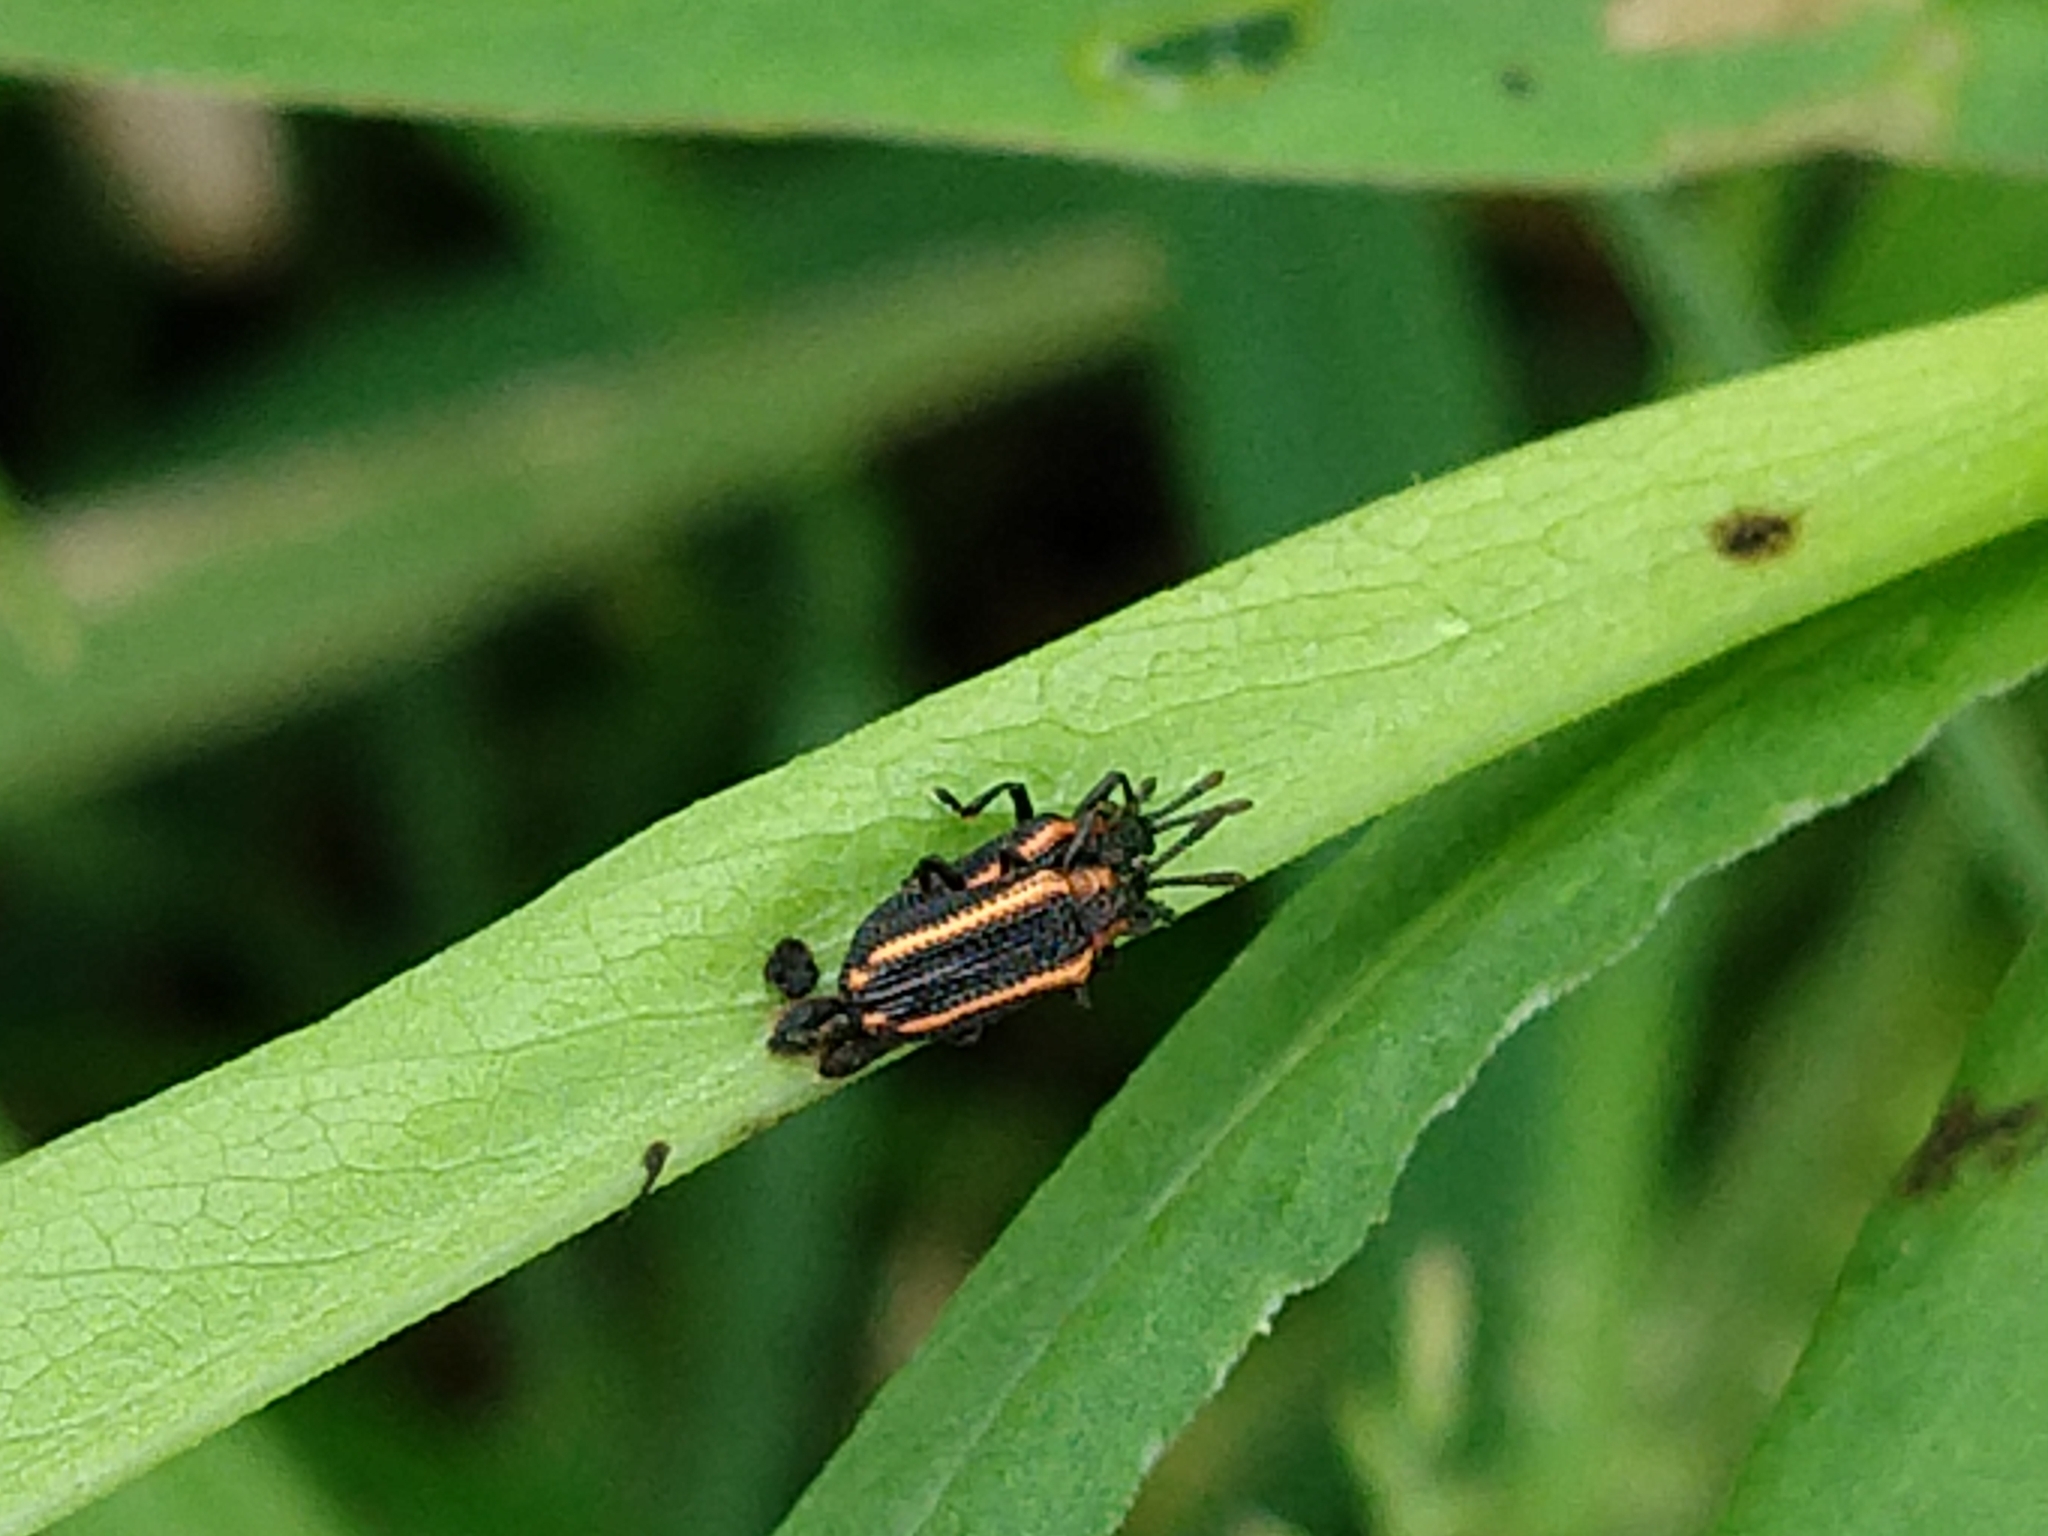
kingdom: Animalia
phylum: Arthropoda
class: Insecta
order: Coleoptera
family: Chrysomelidae
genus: Microrhopala
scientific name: Microrhopala xerene
